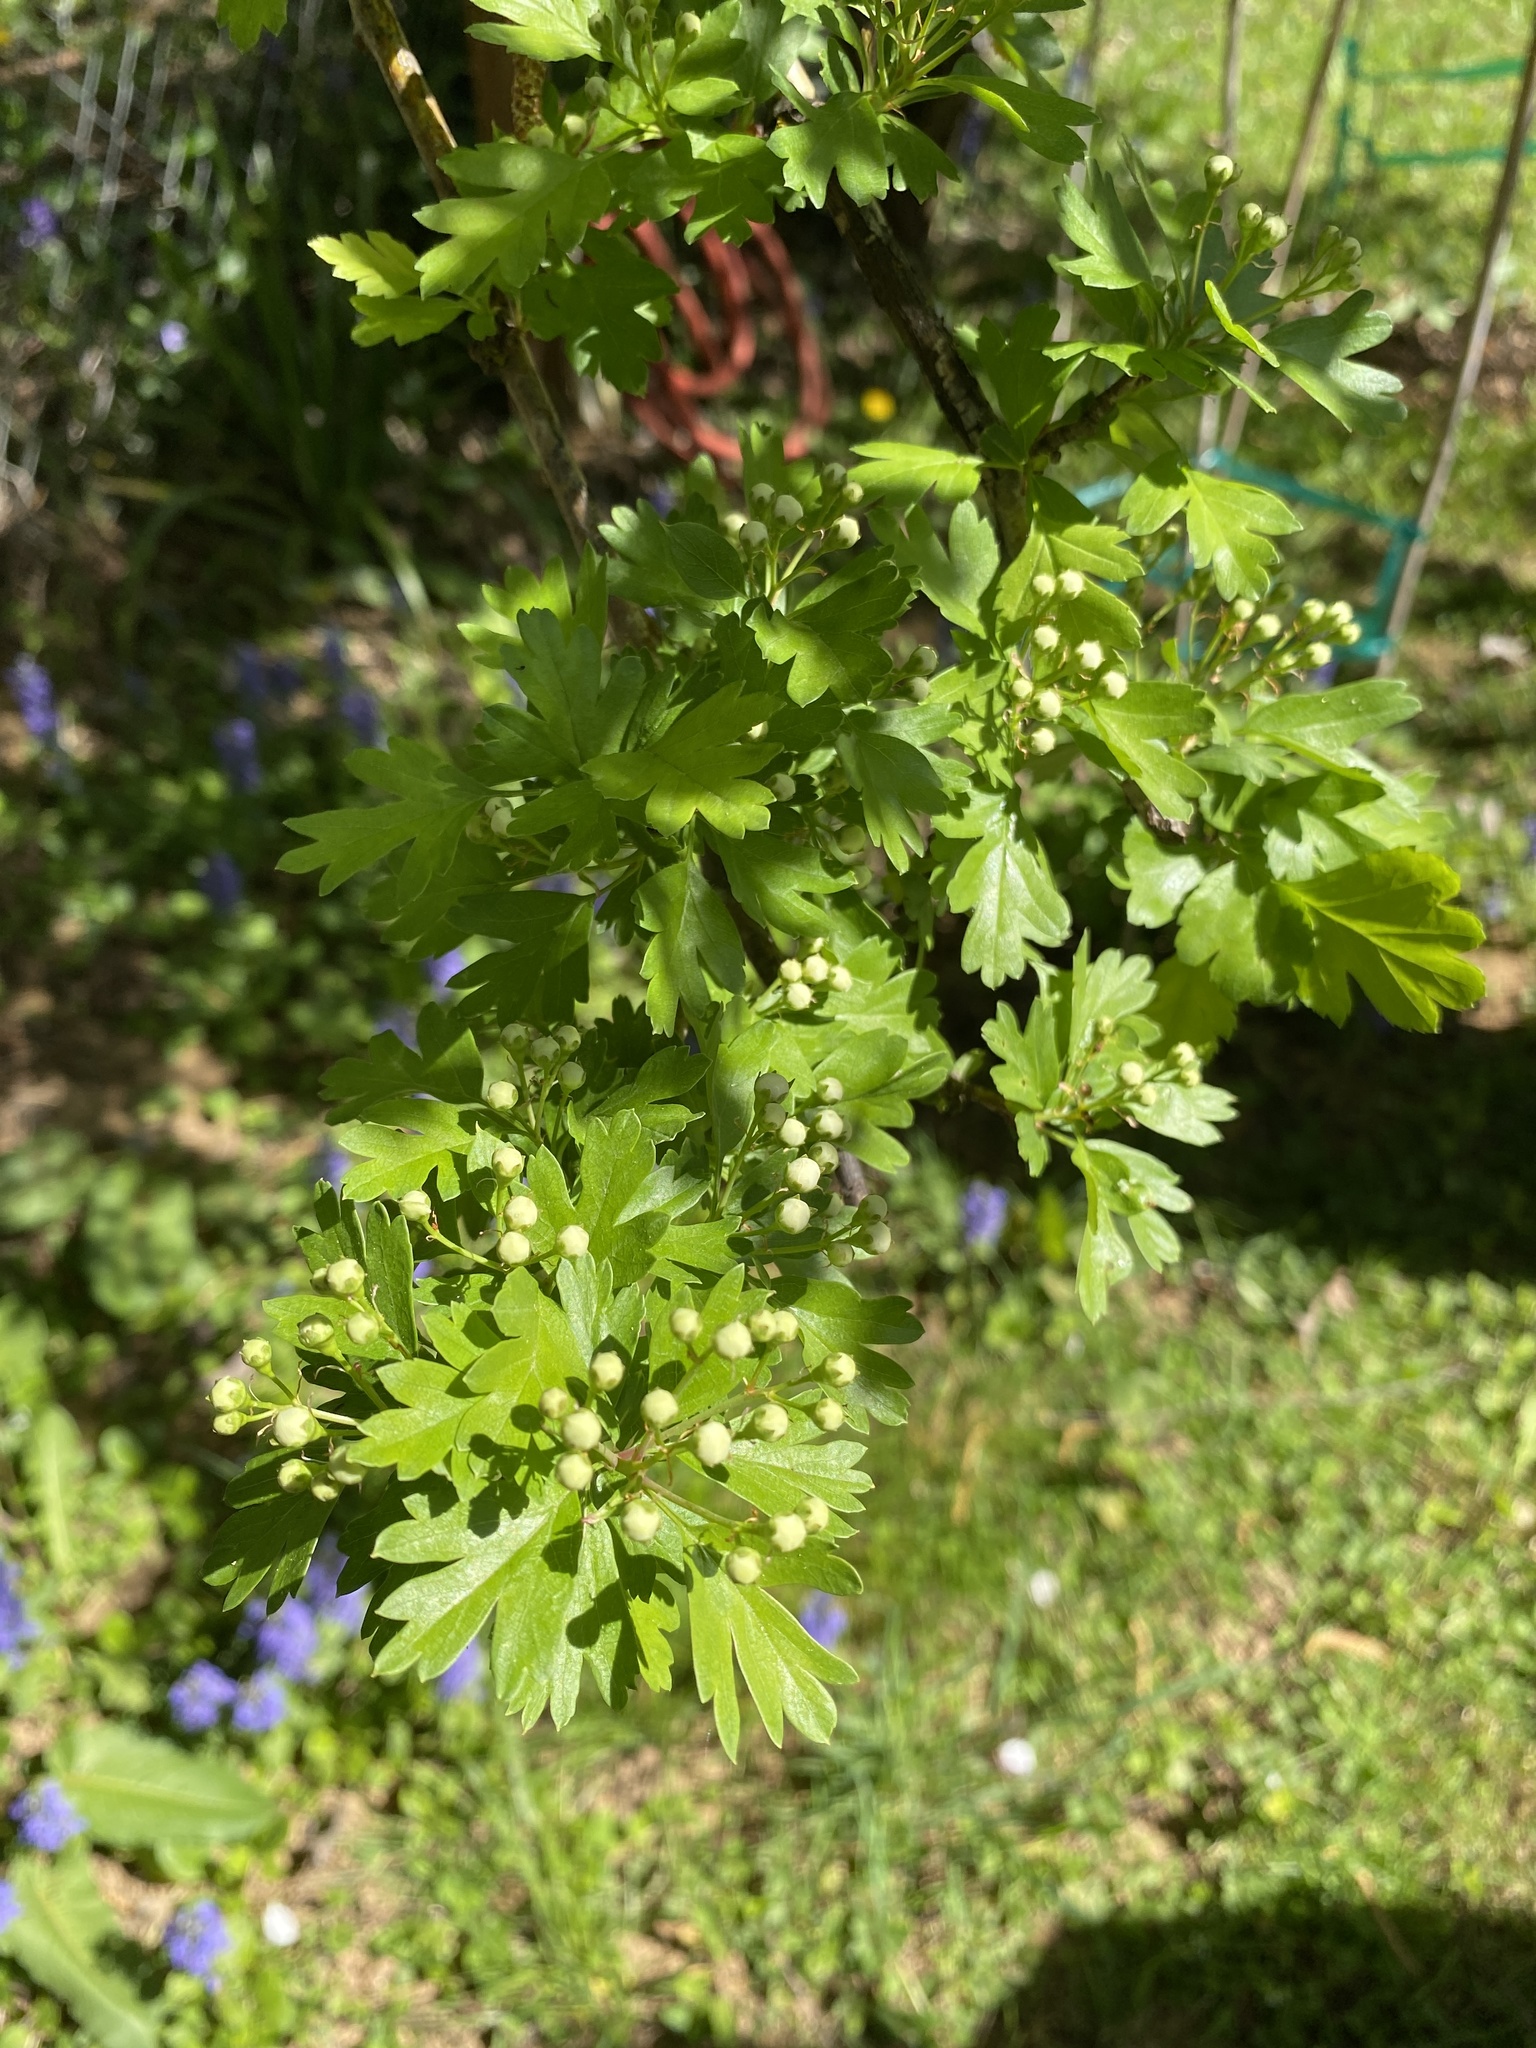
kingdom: Plantae
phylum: Tracheophyta
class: Magnoliopsida
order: Rosales
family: Rosaceae
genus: Crataegus
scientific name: Crataegus monogyna
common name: Hawthorn
